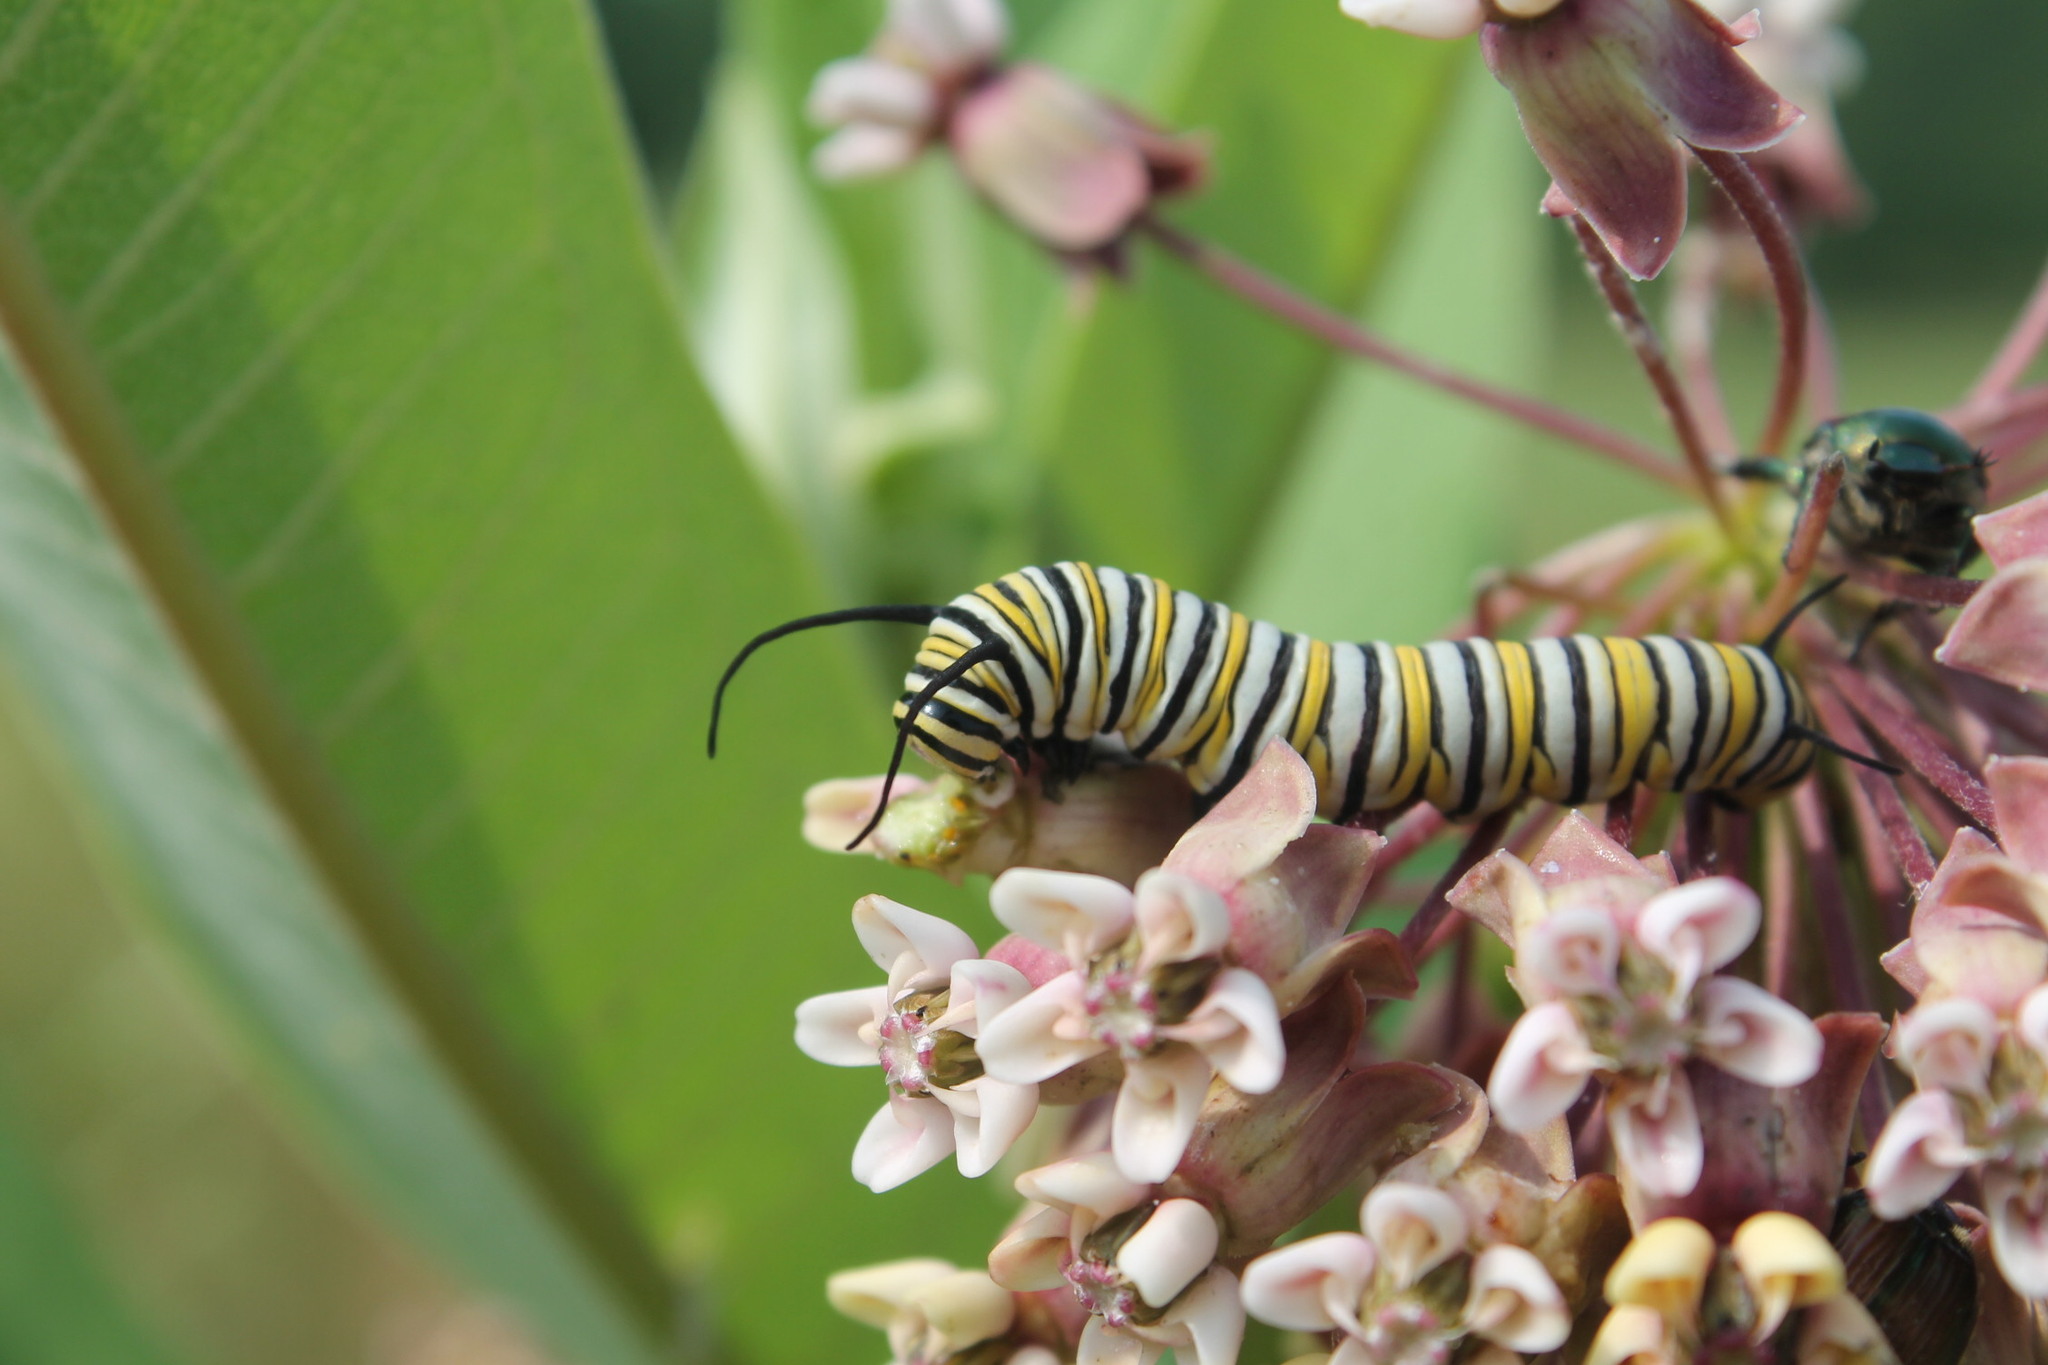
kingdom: Animalia
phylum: Arthropoda
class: Insecta
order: Lepidoptera
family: Nymphalidae
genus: Danaus
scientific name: Danaus plexippus
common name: Monarch
